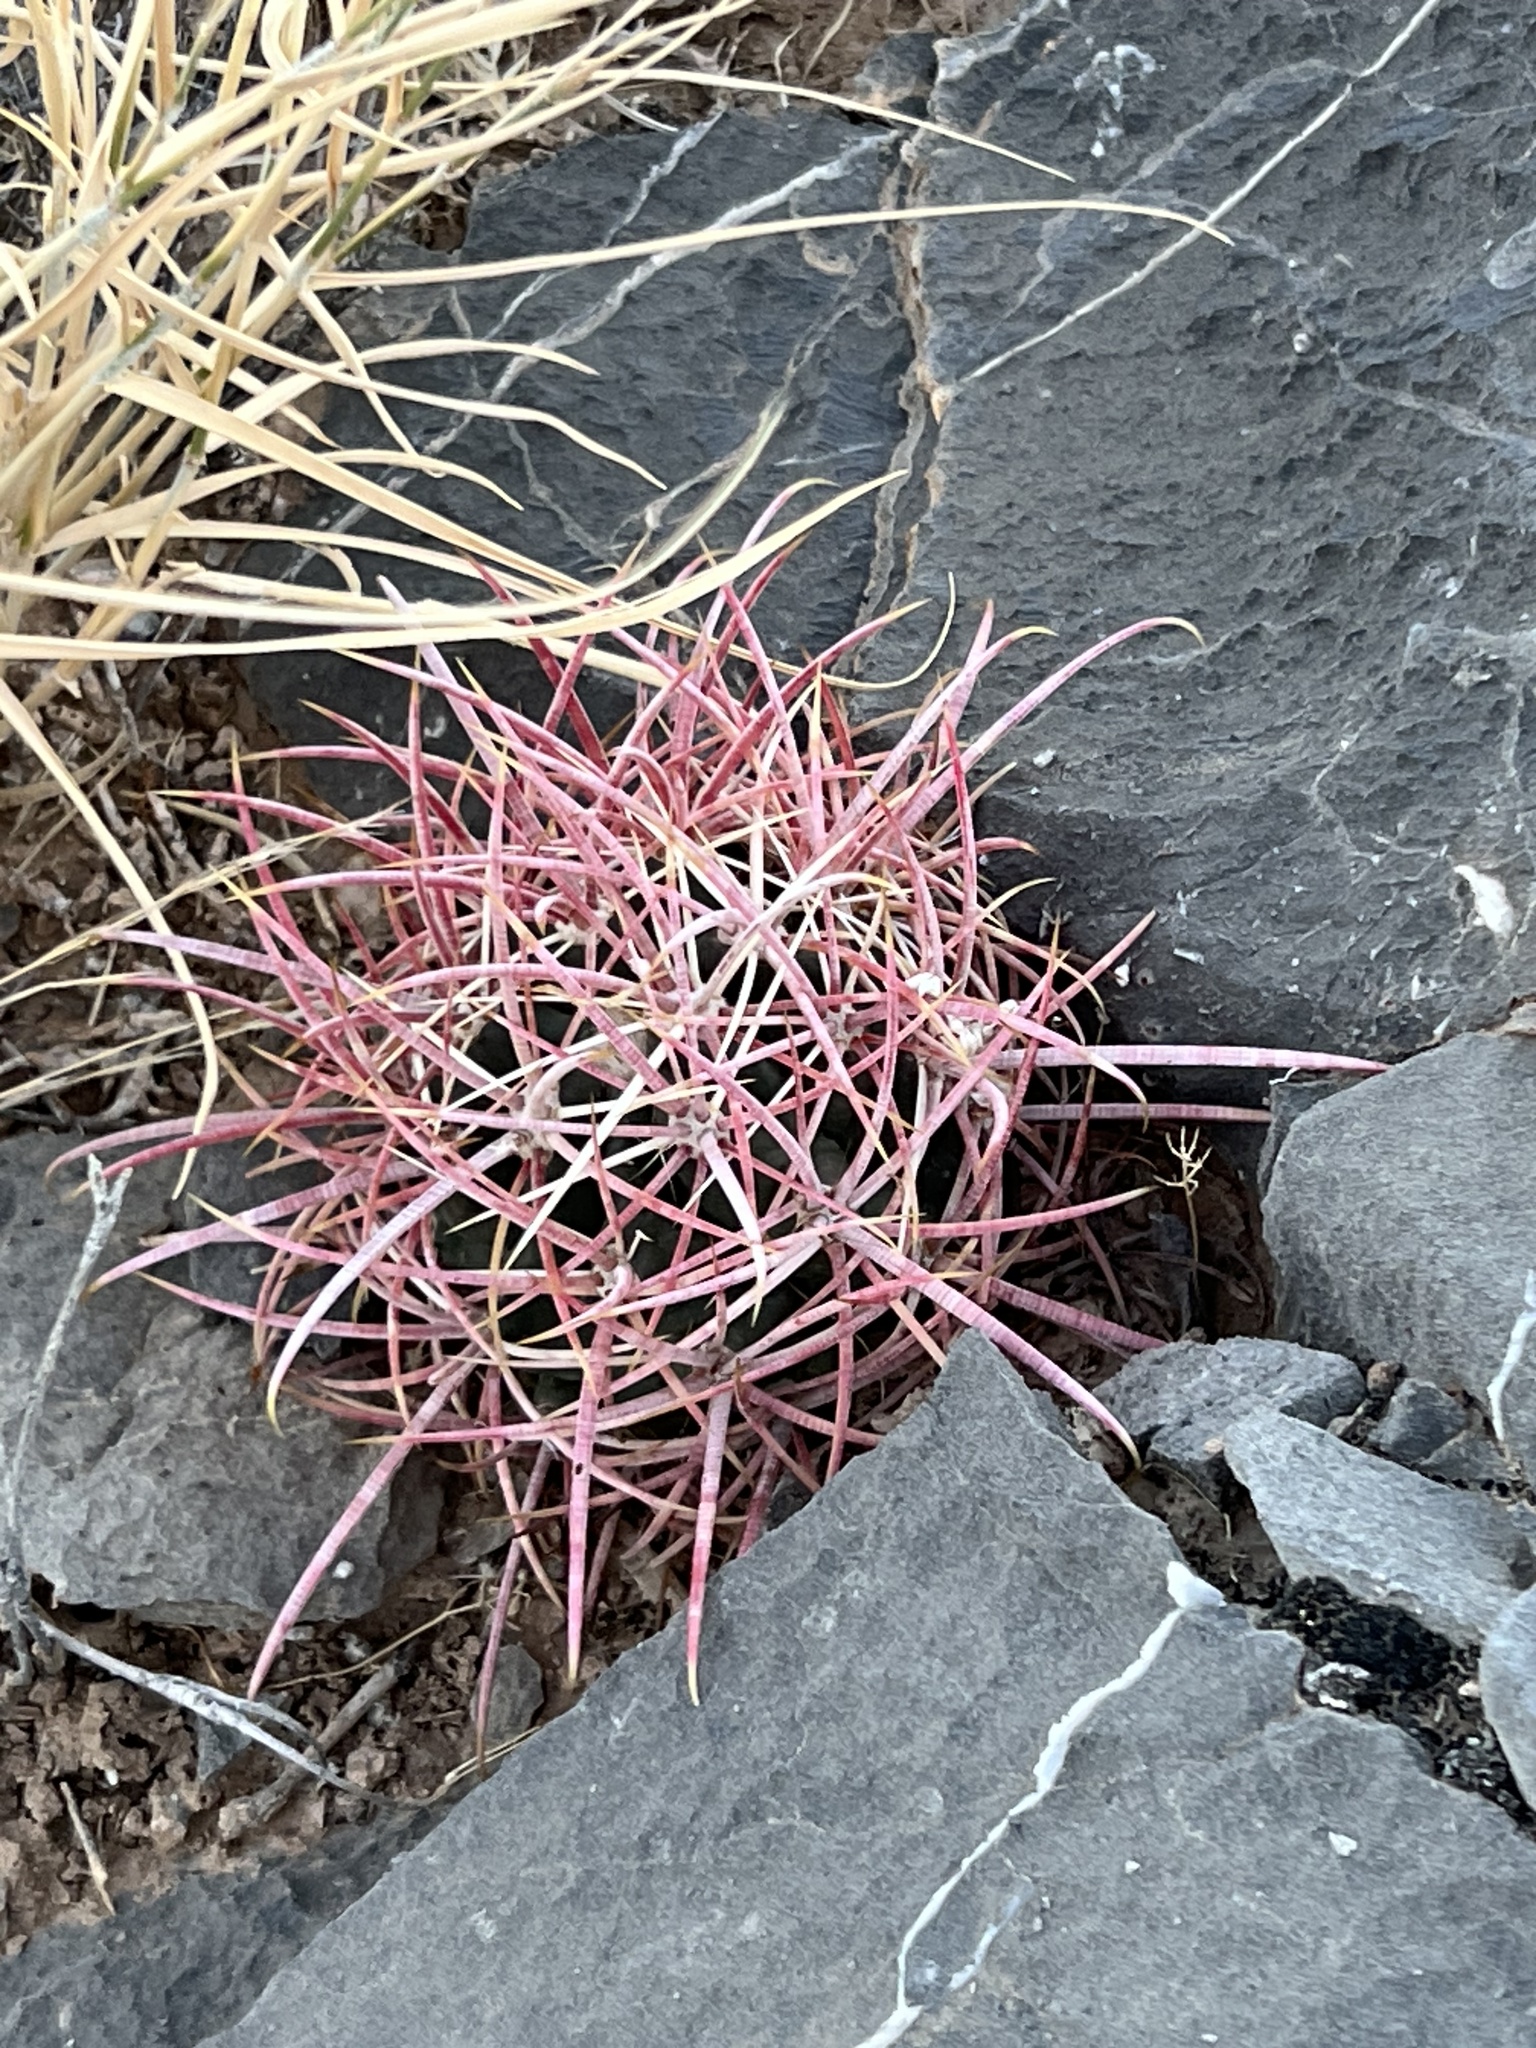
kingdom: Plantae
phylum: Tracheophyta
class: Magnoliopsida
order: Caryophyllales
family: Cactaceae
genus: Ferocactus
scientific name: Ferocactus cylindraceus
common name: California barrel cactus
